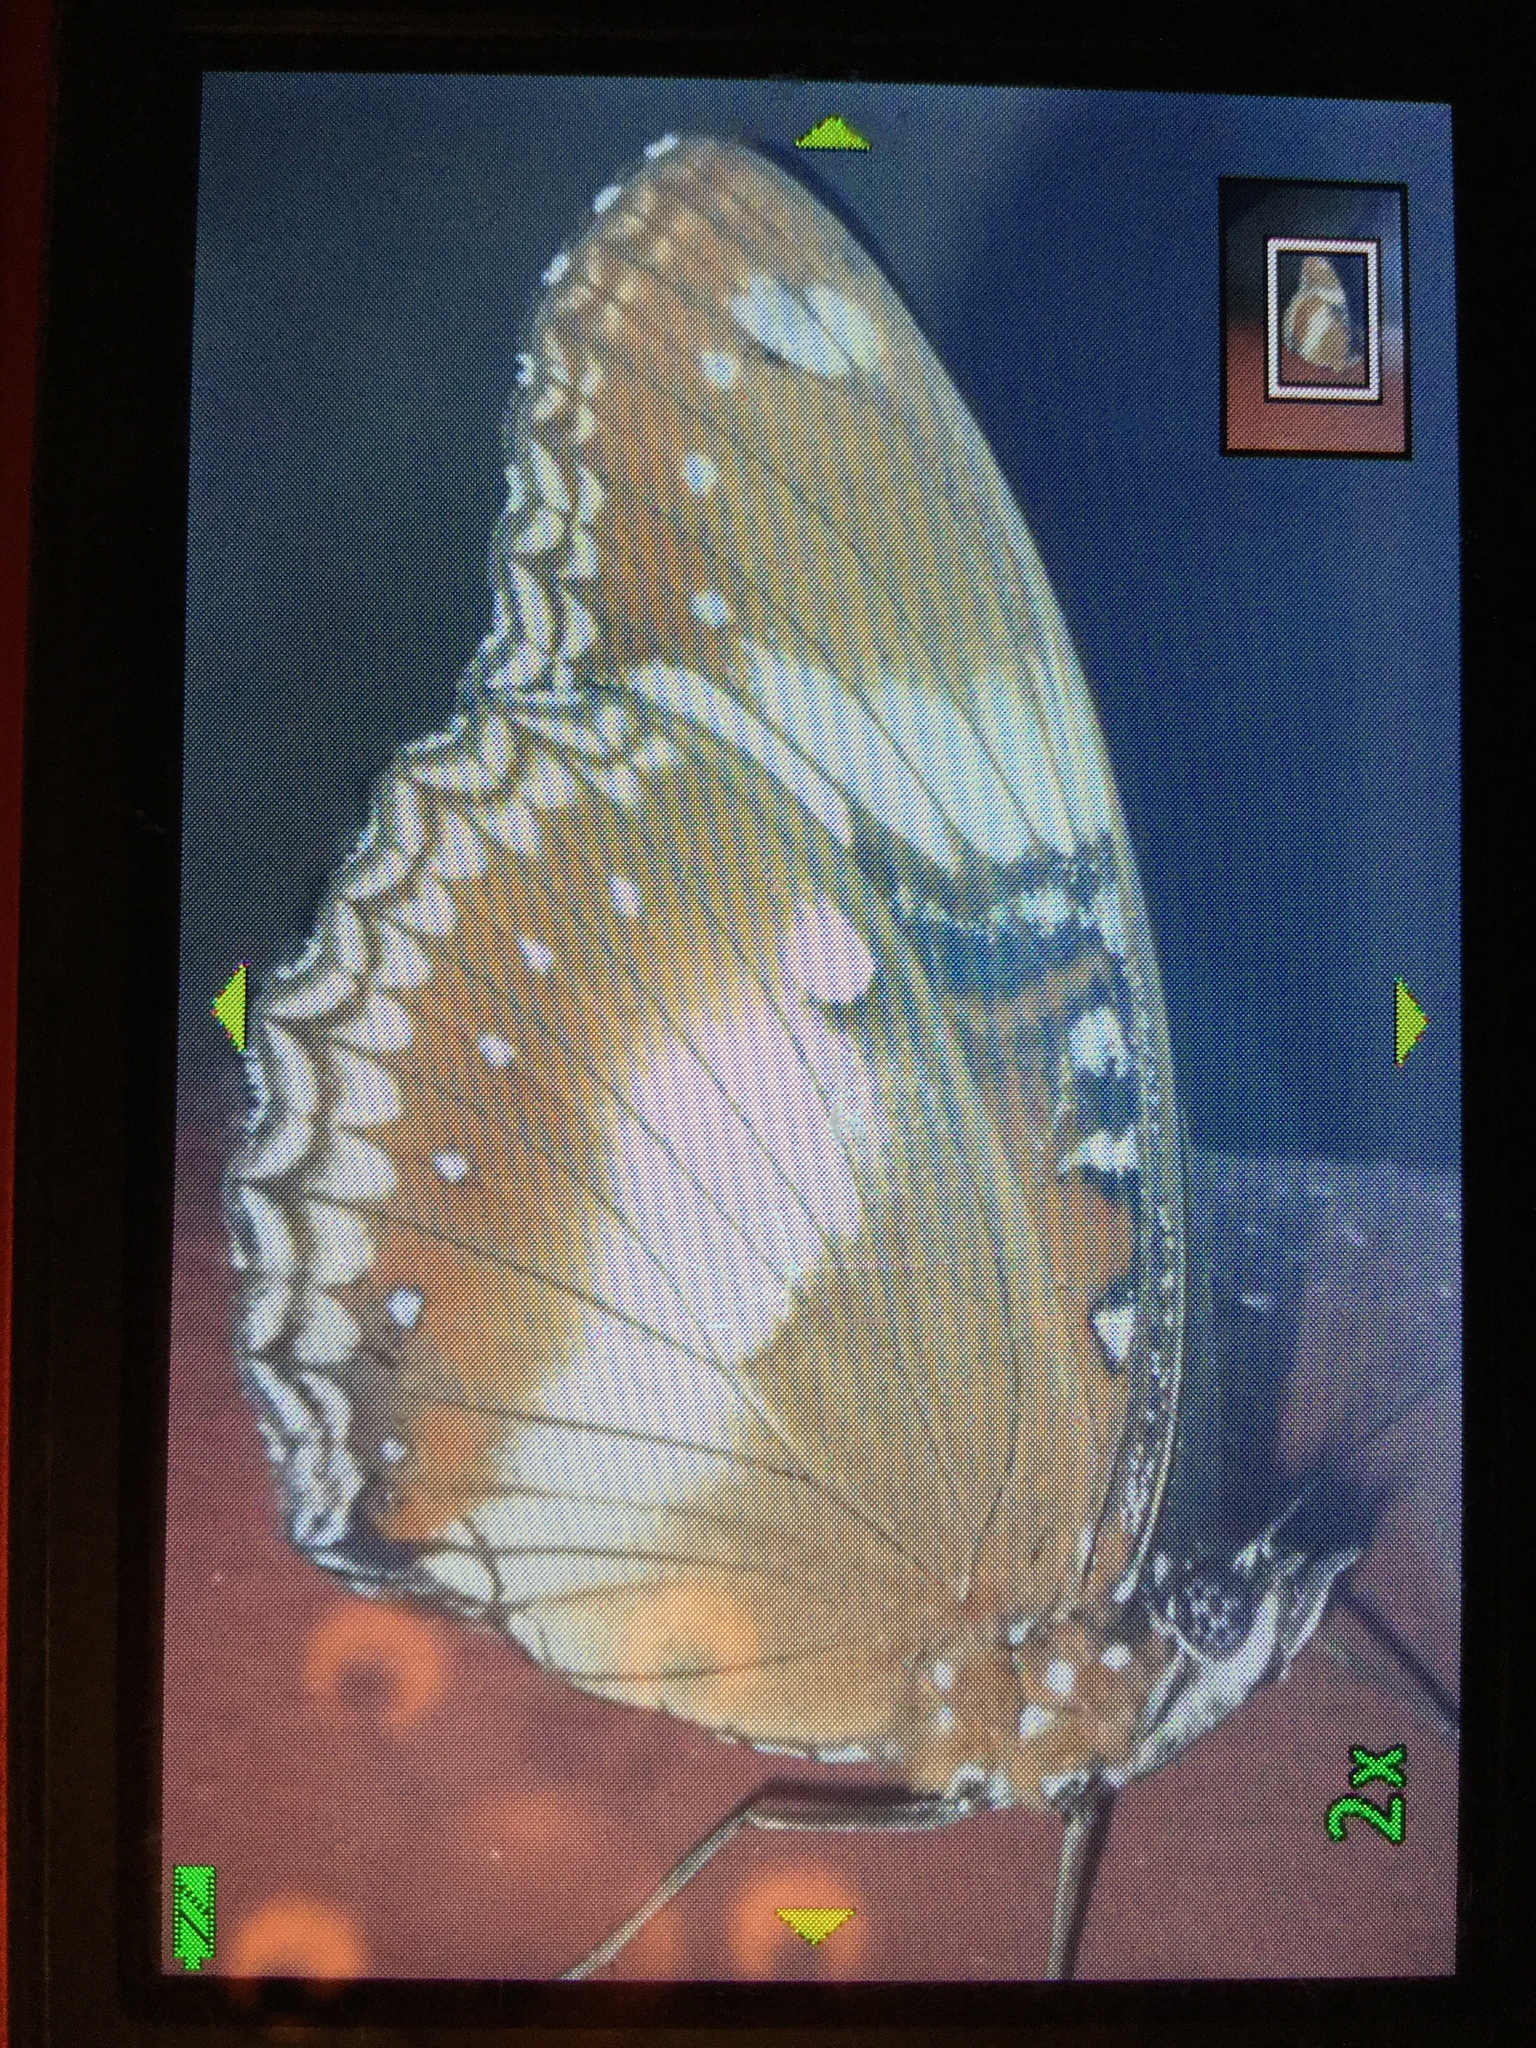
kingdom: Animalia
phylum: Arthropoda
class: Insecta
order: Lepidoptera
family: Nymphalidae
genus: Hypolimnas
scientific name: Hypolimnas bolina
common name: Great eggfly
